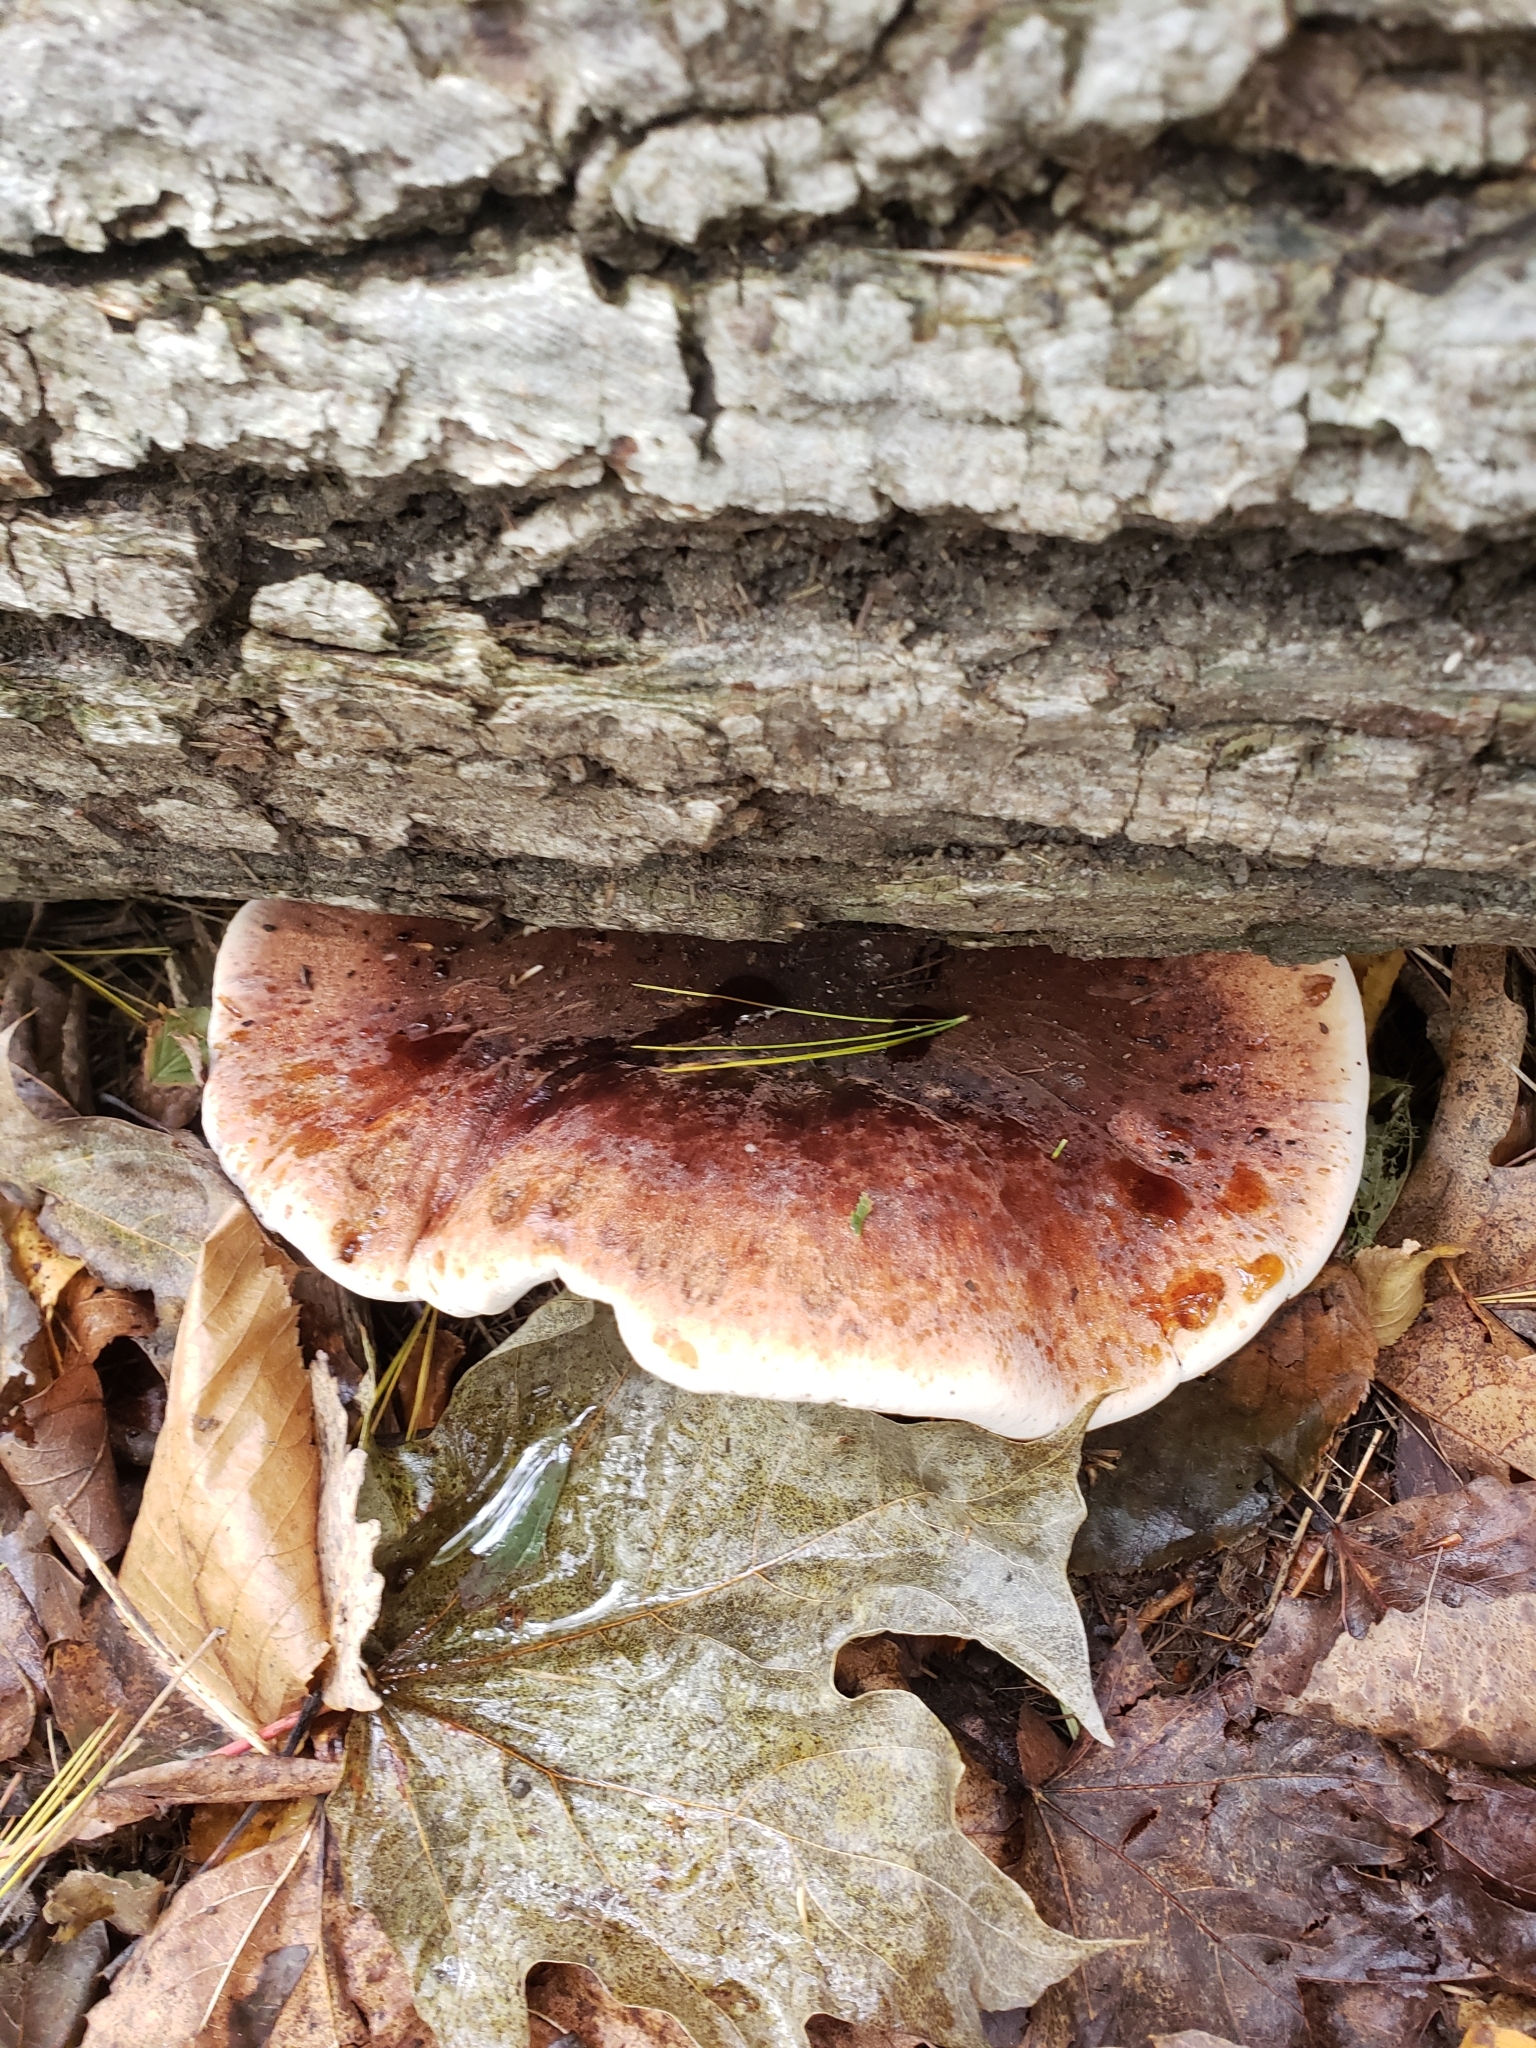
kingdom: Fungi
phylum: Basidiomycota
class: Agaricomycetes
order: Polyporales
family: Ischnodermataceae
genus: Ischnoderma
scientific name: Ischnoderma resinosum
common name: Resinous polypore
